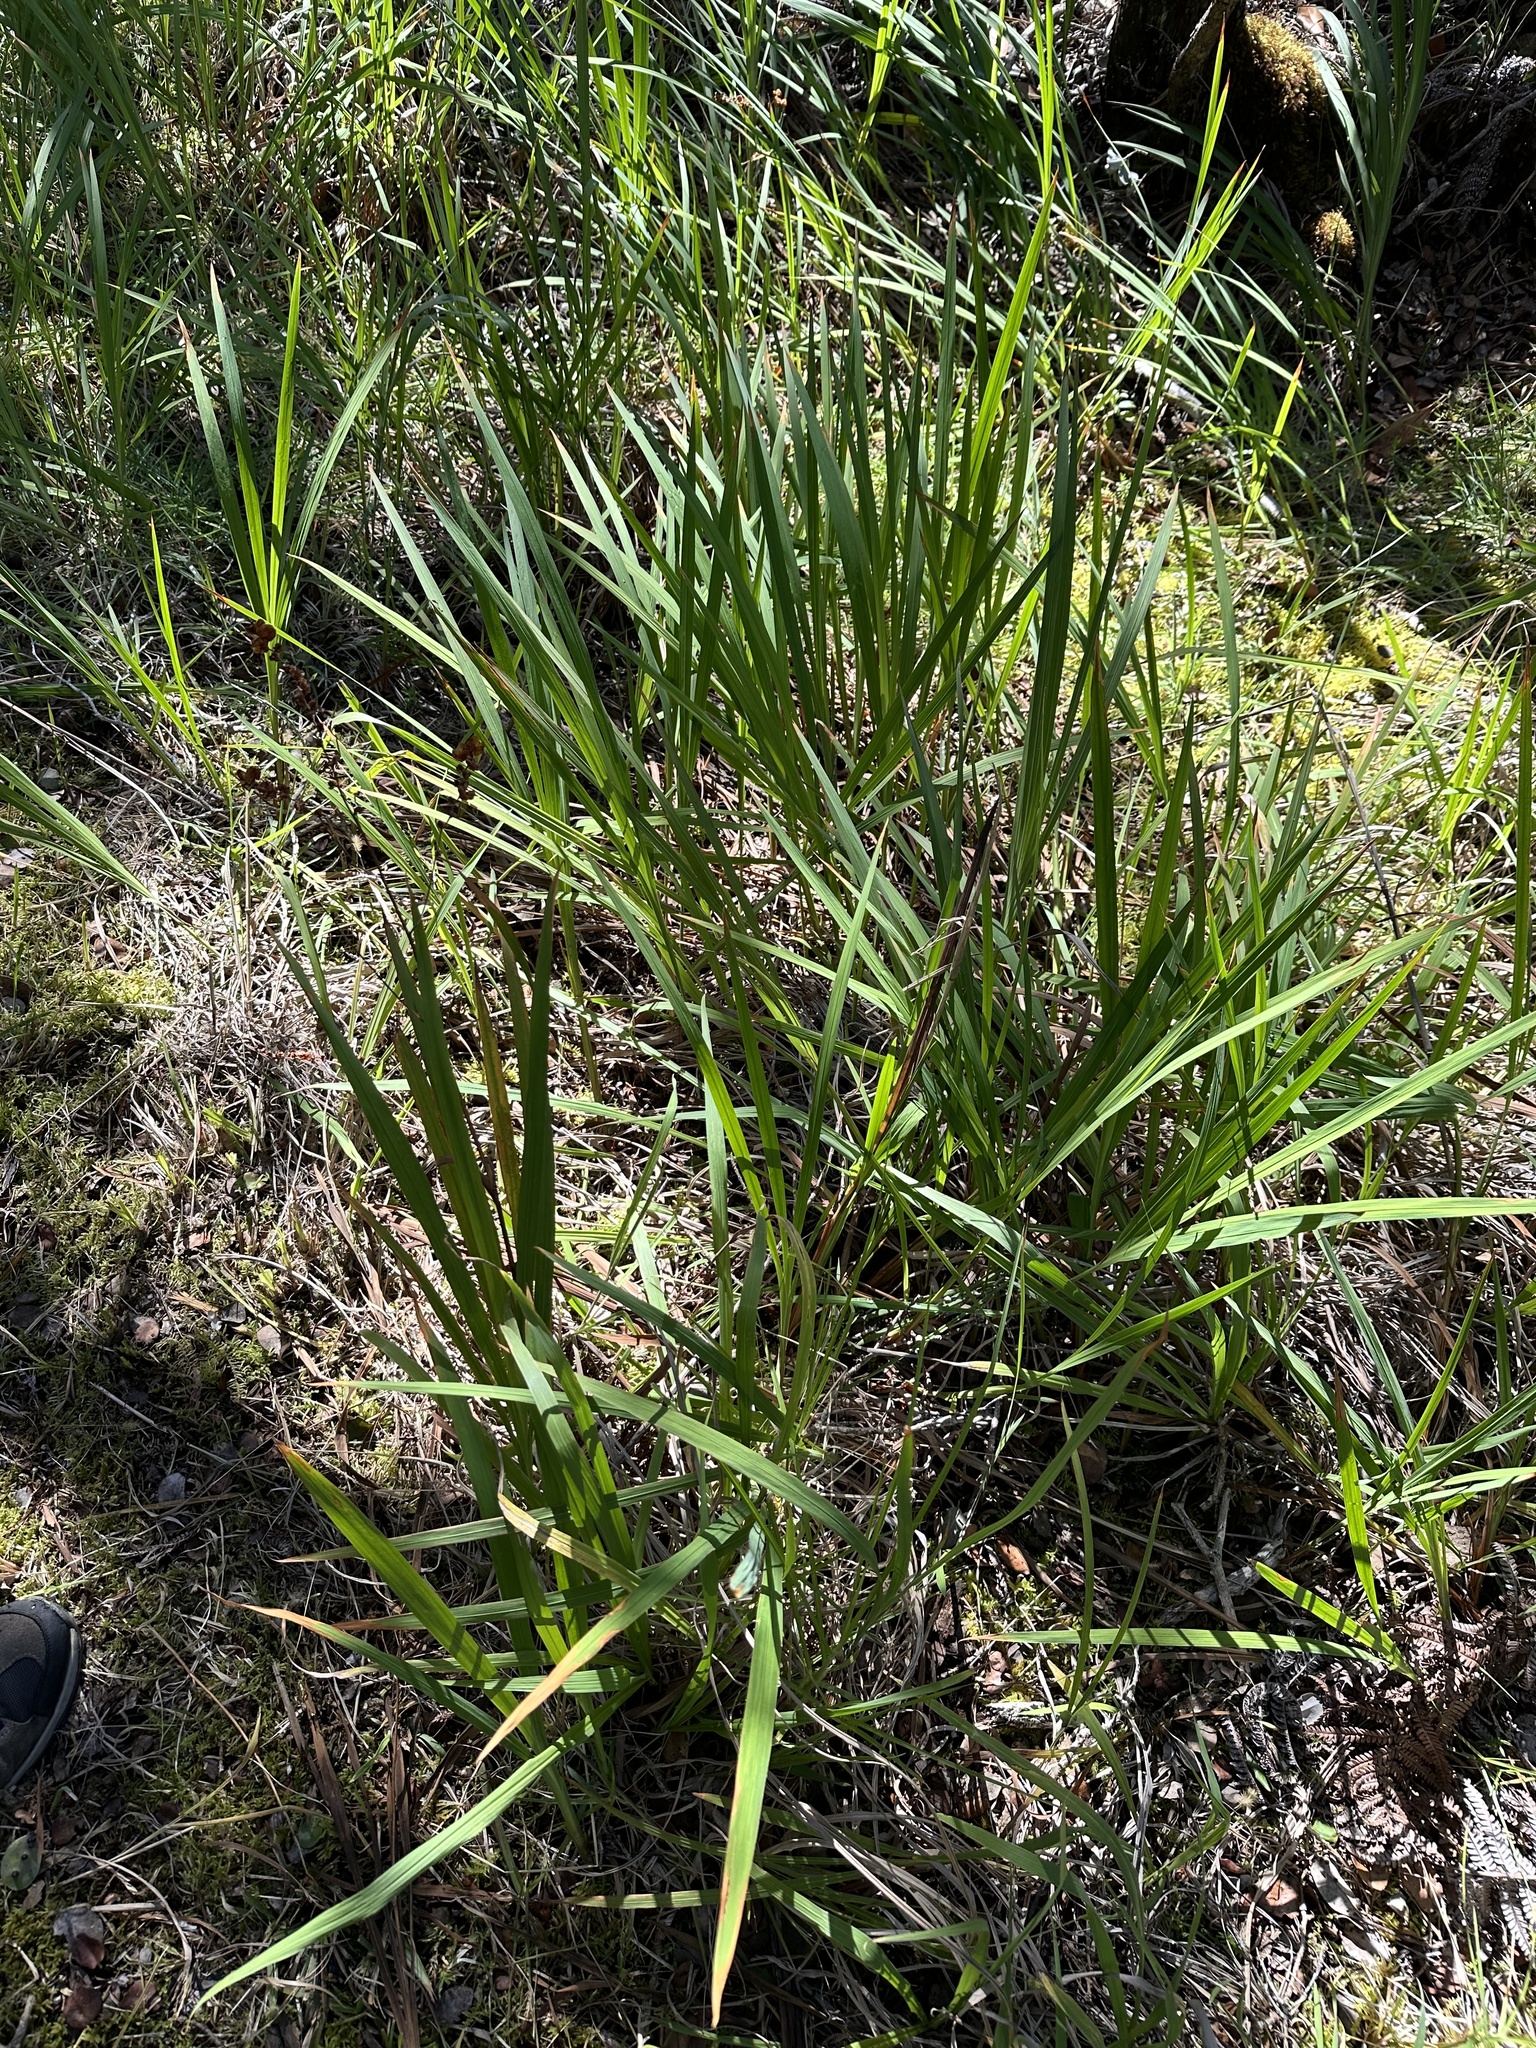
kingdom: Plantae
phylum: Tracheophyta
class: Liliopsida
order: Asparagales
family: Iridaceae
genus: Crocosmia
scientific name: Crocosmia crocosmiiflora
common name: Montbretia
